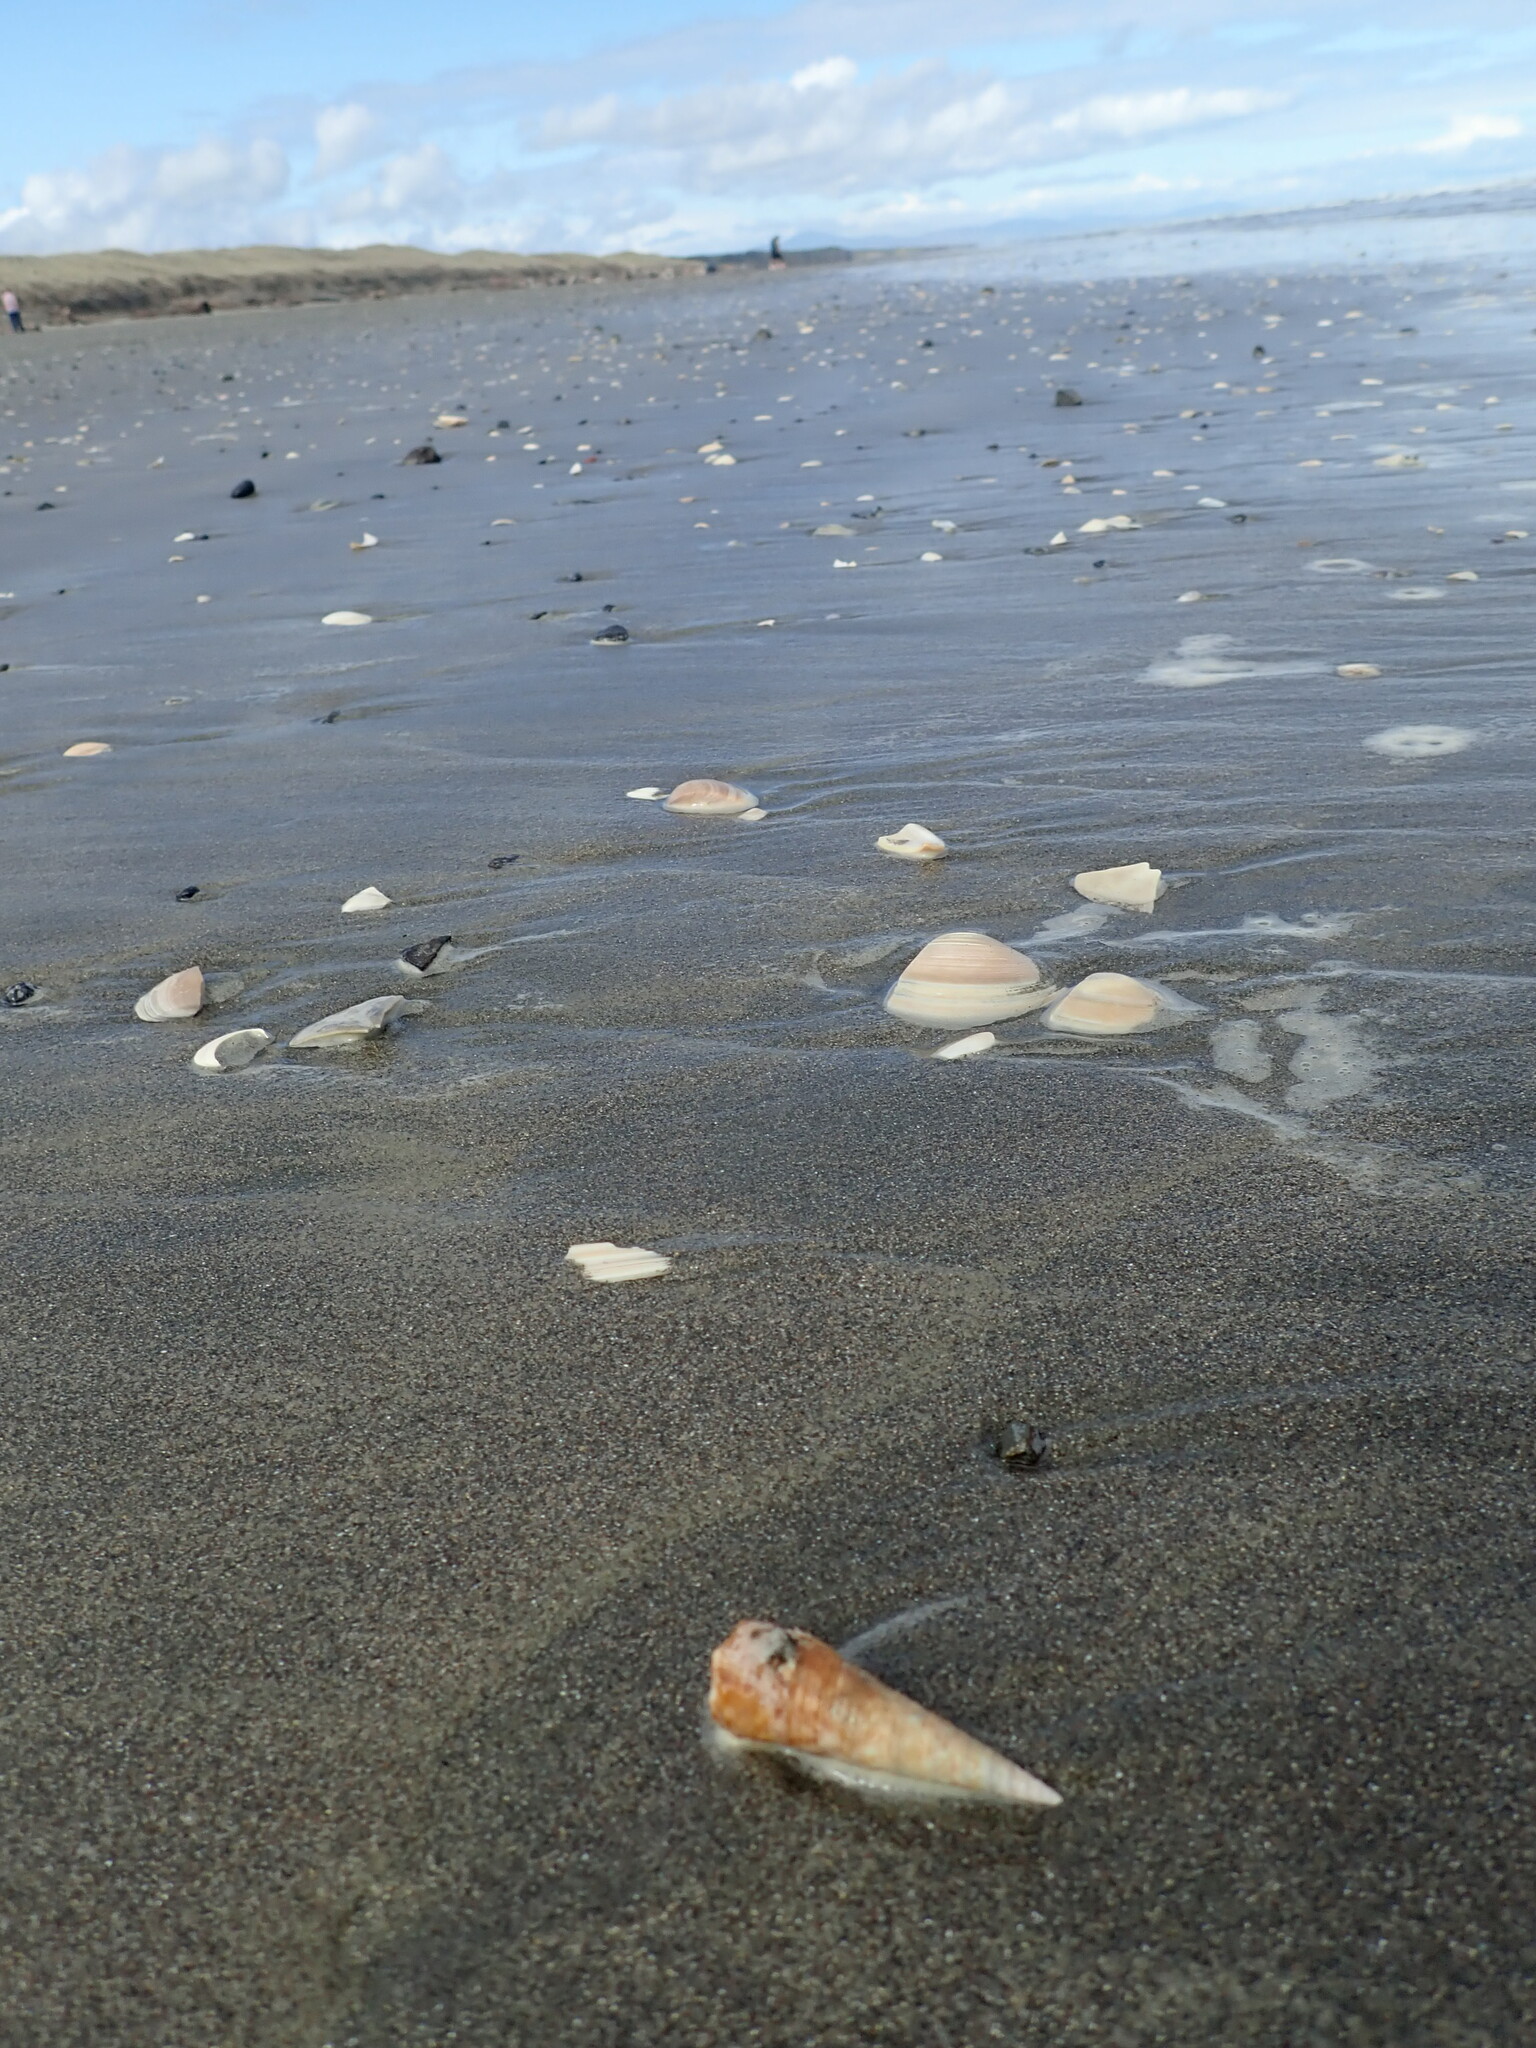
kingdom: Animalia
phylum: Mollusca
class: Gastropoda
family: Turritellidae
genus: Maoricolpus
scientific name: Maoricolpus roseus
